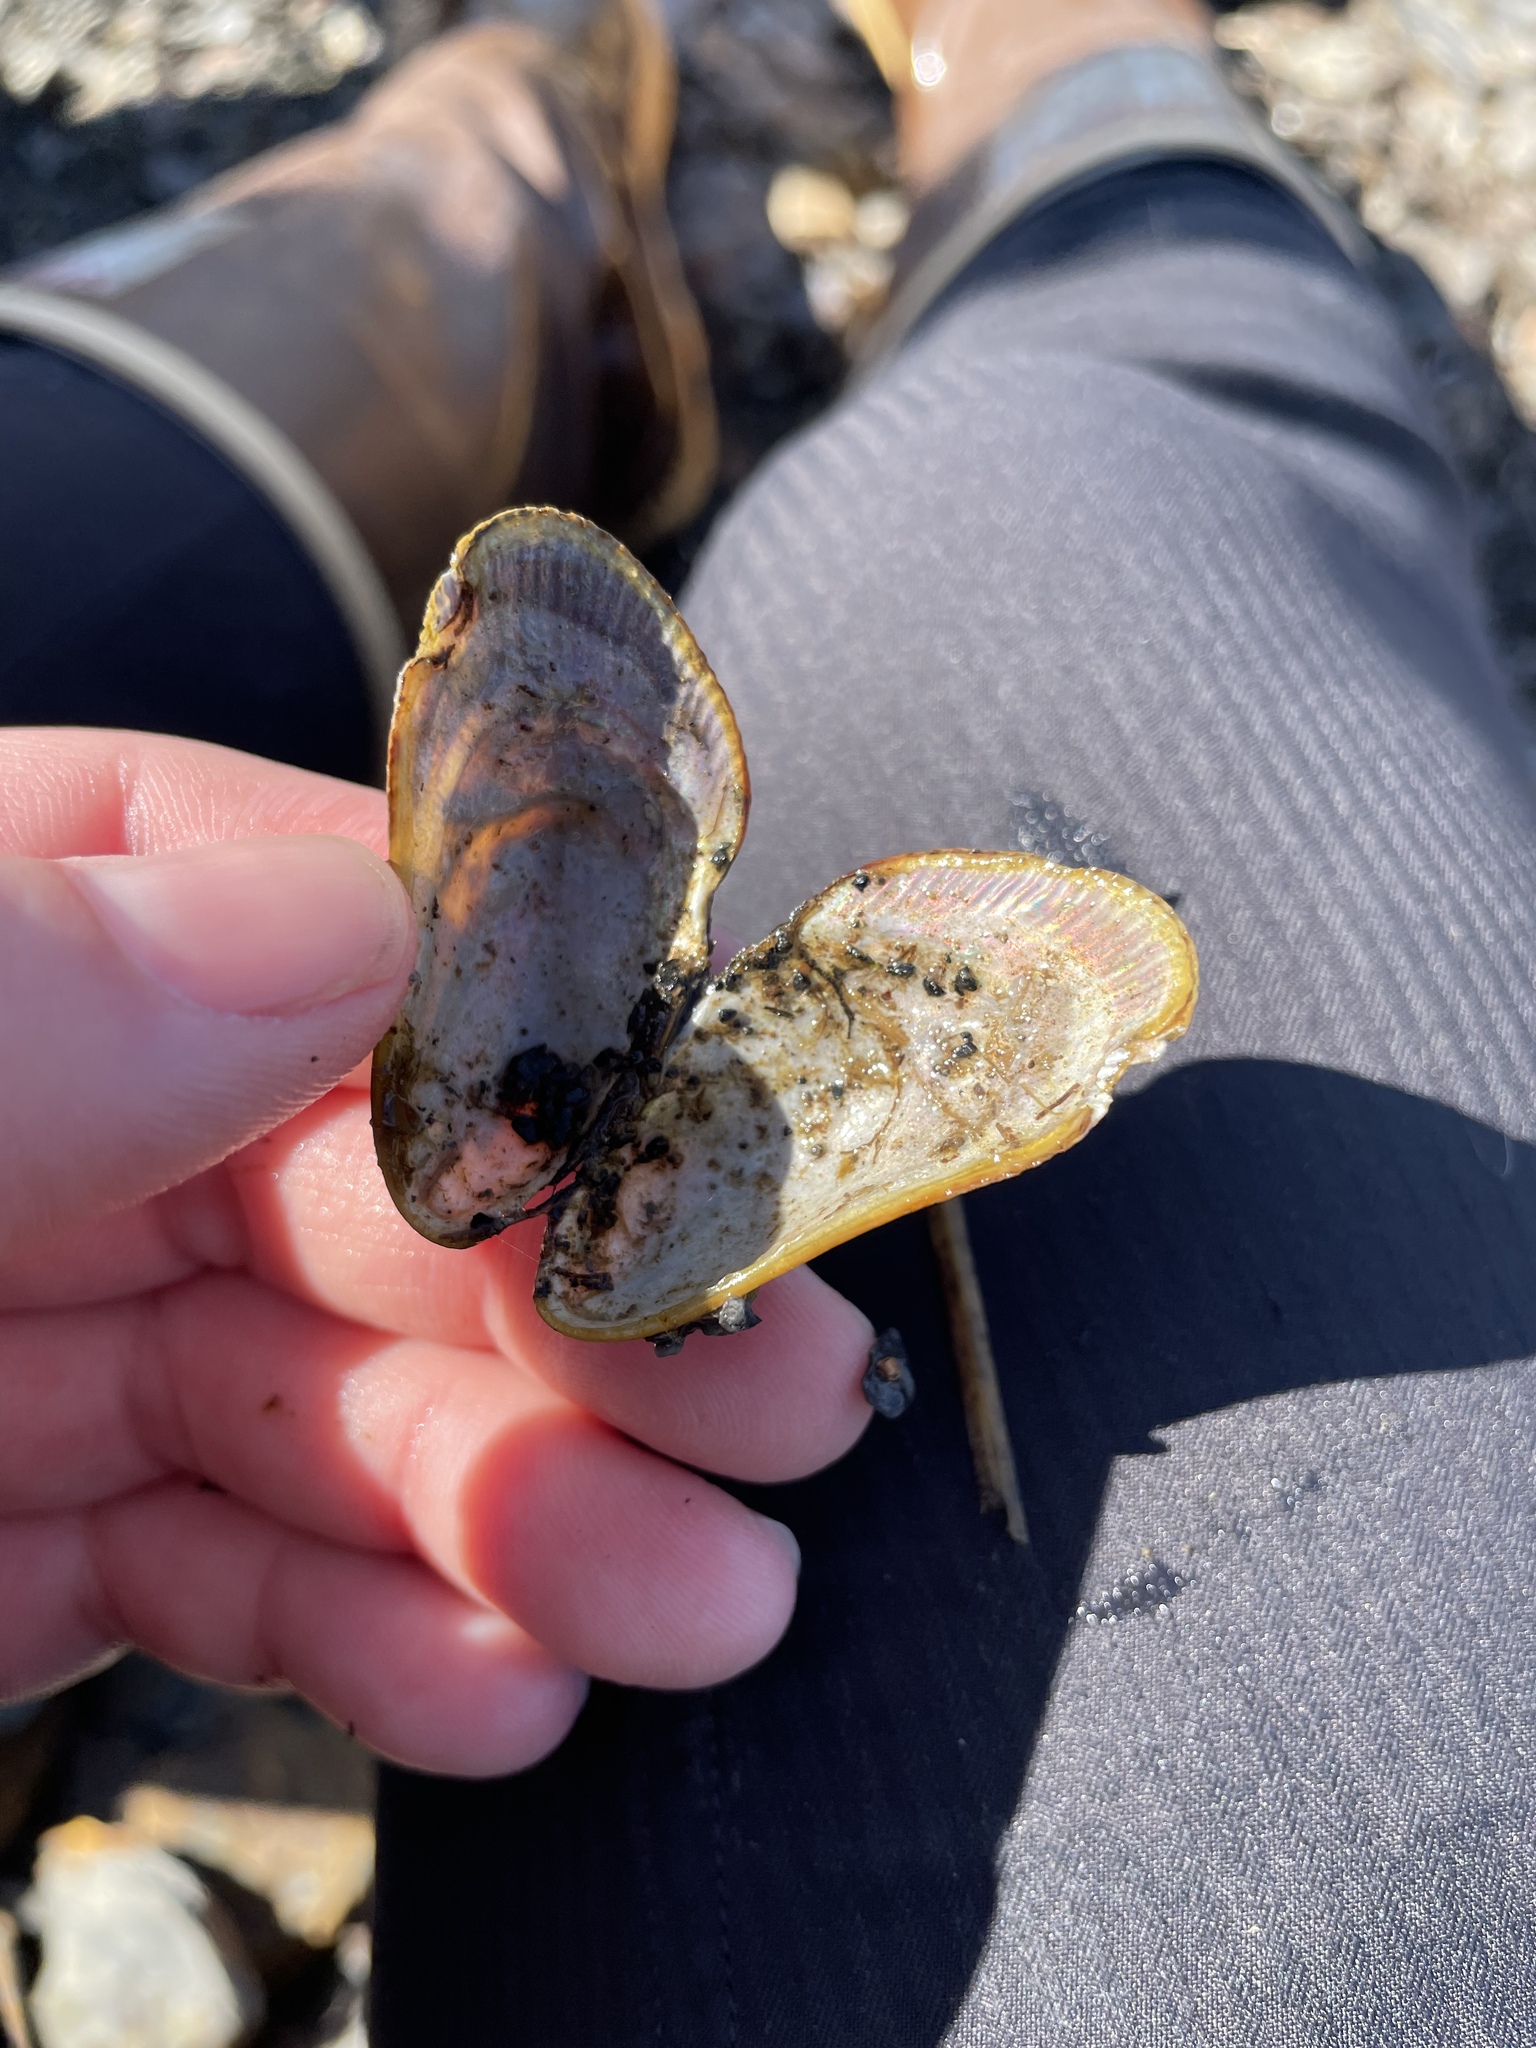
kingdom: Animalia
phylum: Mollusca
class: Bivalvia
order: Mytilida
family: Mytilidae
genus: Geukensia
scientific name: Geukensia demissa
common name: Ribbed mussel
